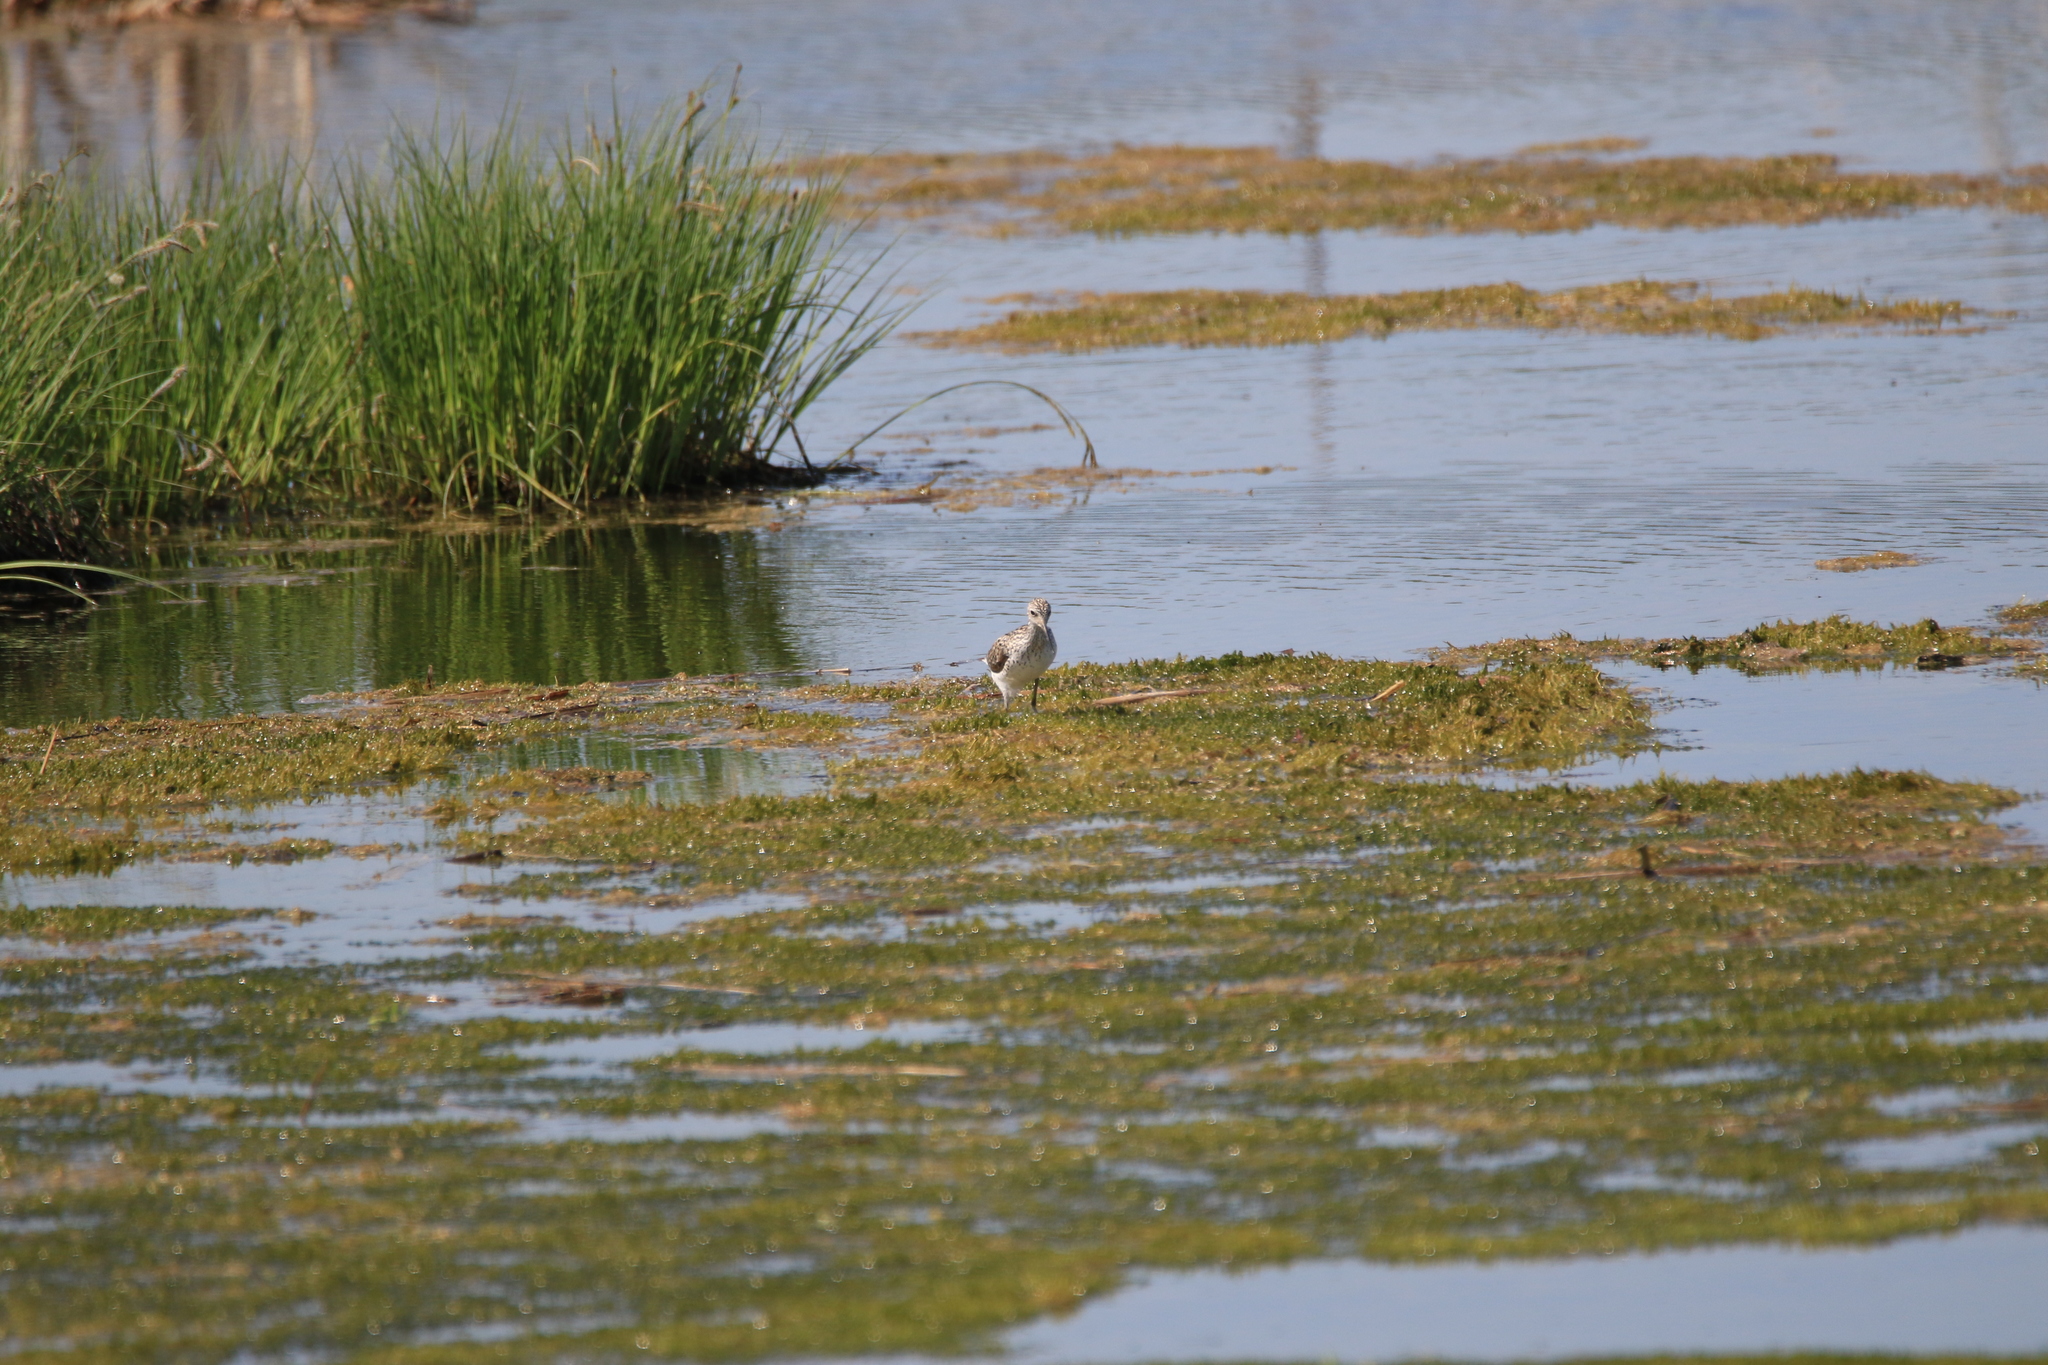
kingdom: Animalia
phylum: Chordata
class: Aves
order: Charadriiformes
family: Scolopacidae
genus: Tringa
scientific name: Tringa stagnatilis
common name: Marsh sandpiper
